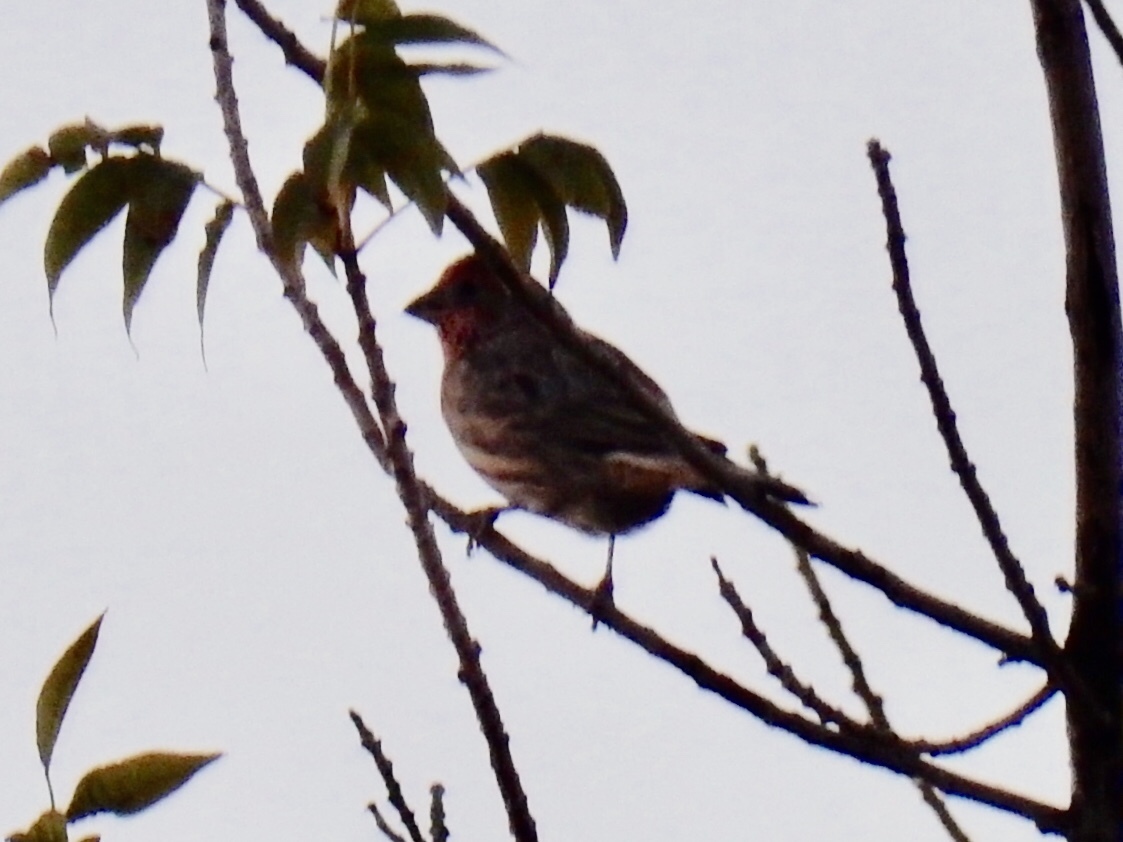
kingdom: Animalia
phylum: Chordata
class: Aves
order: Passeriformes
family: Fringillidae
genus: Haemorhous
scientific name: Haemorhous mexicanus
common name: House finch
